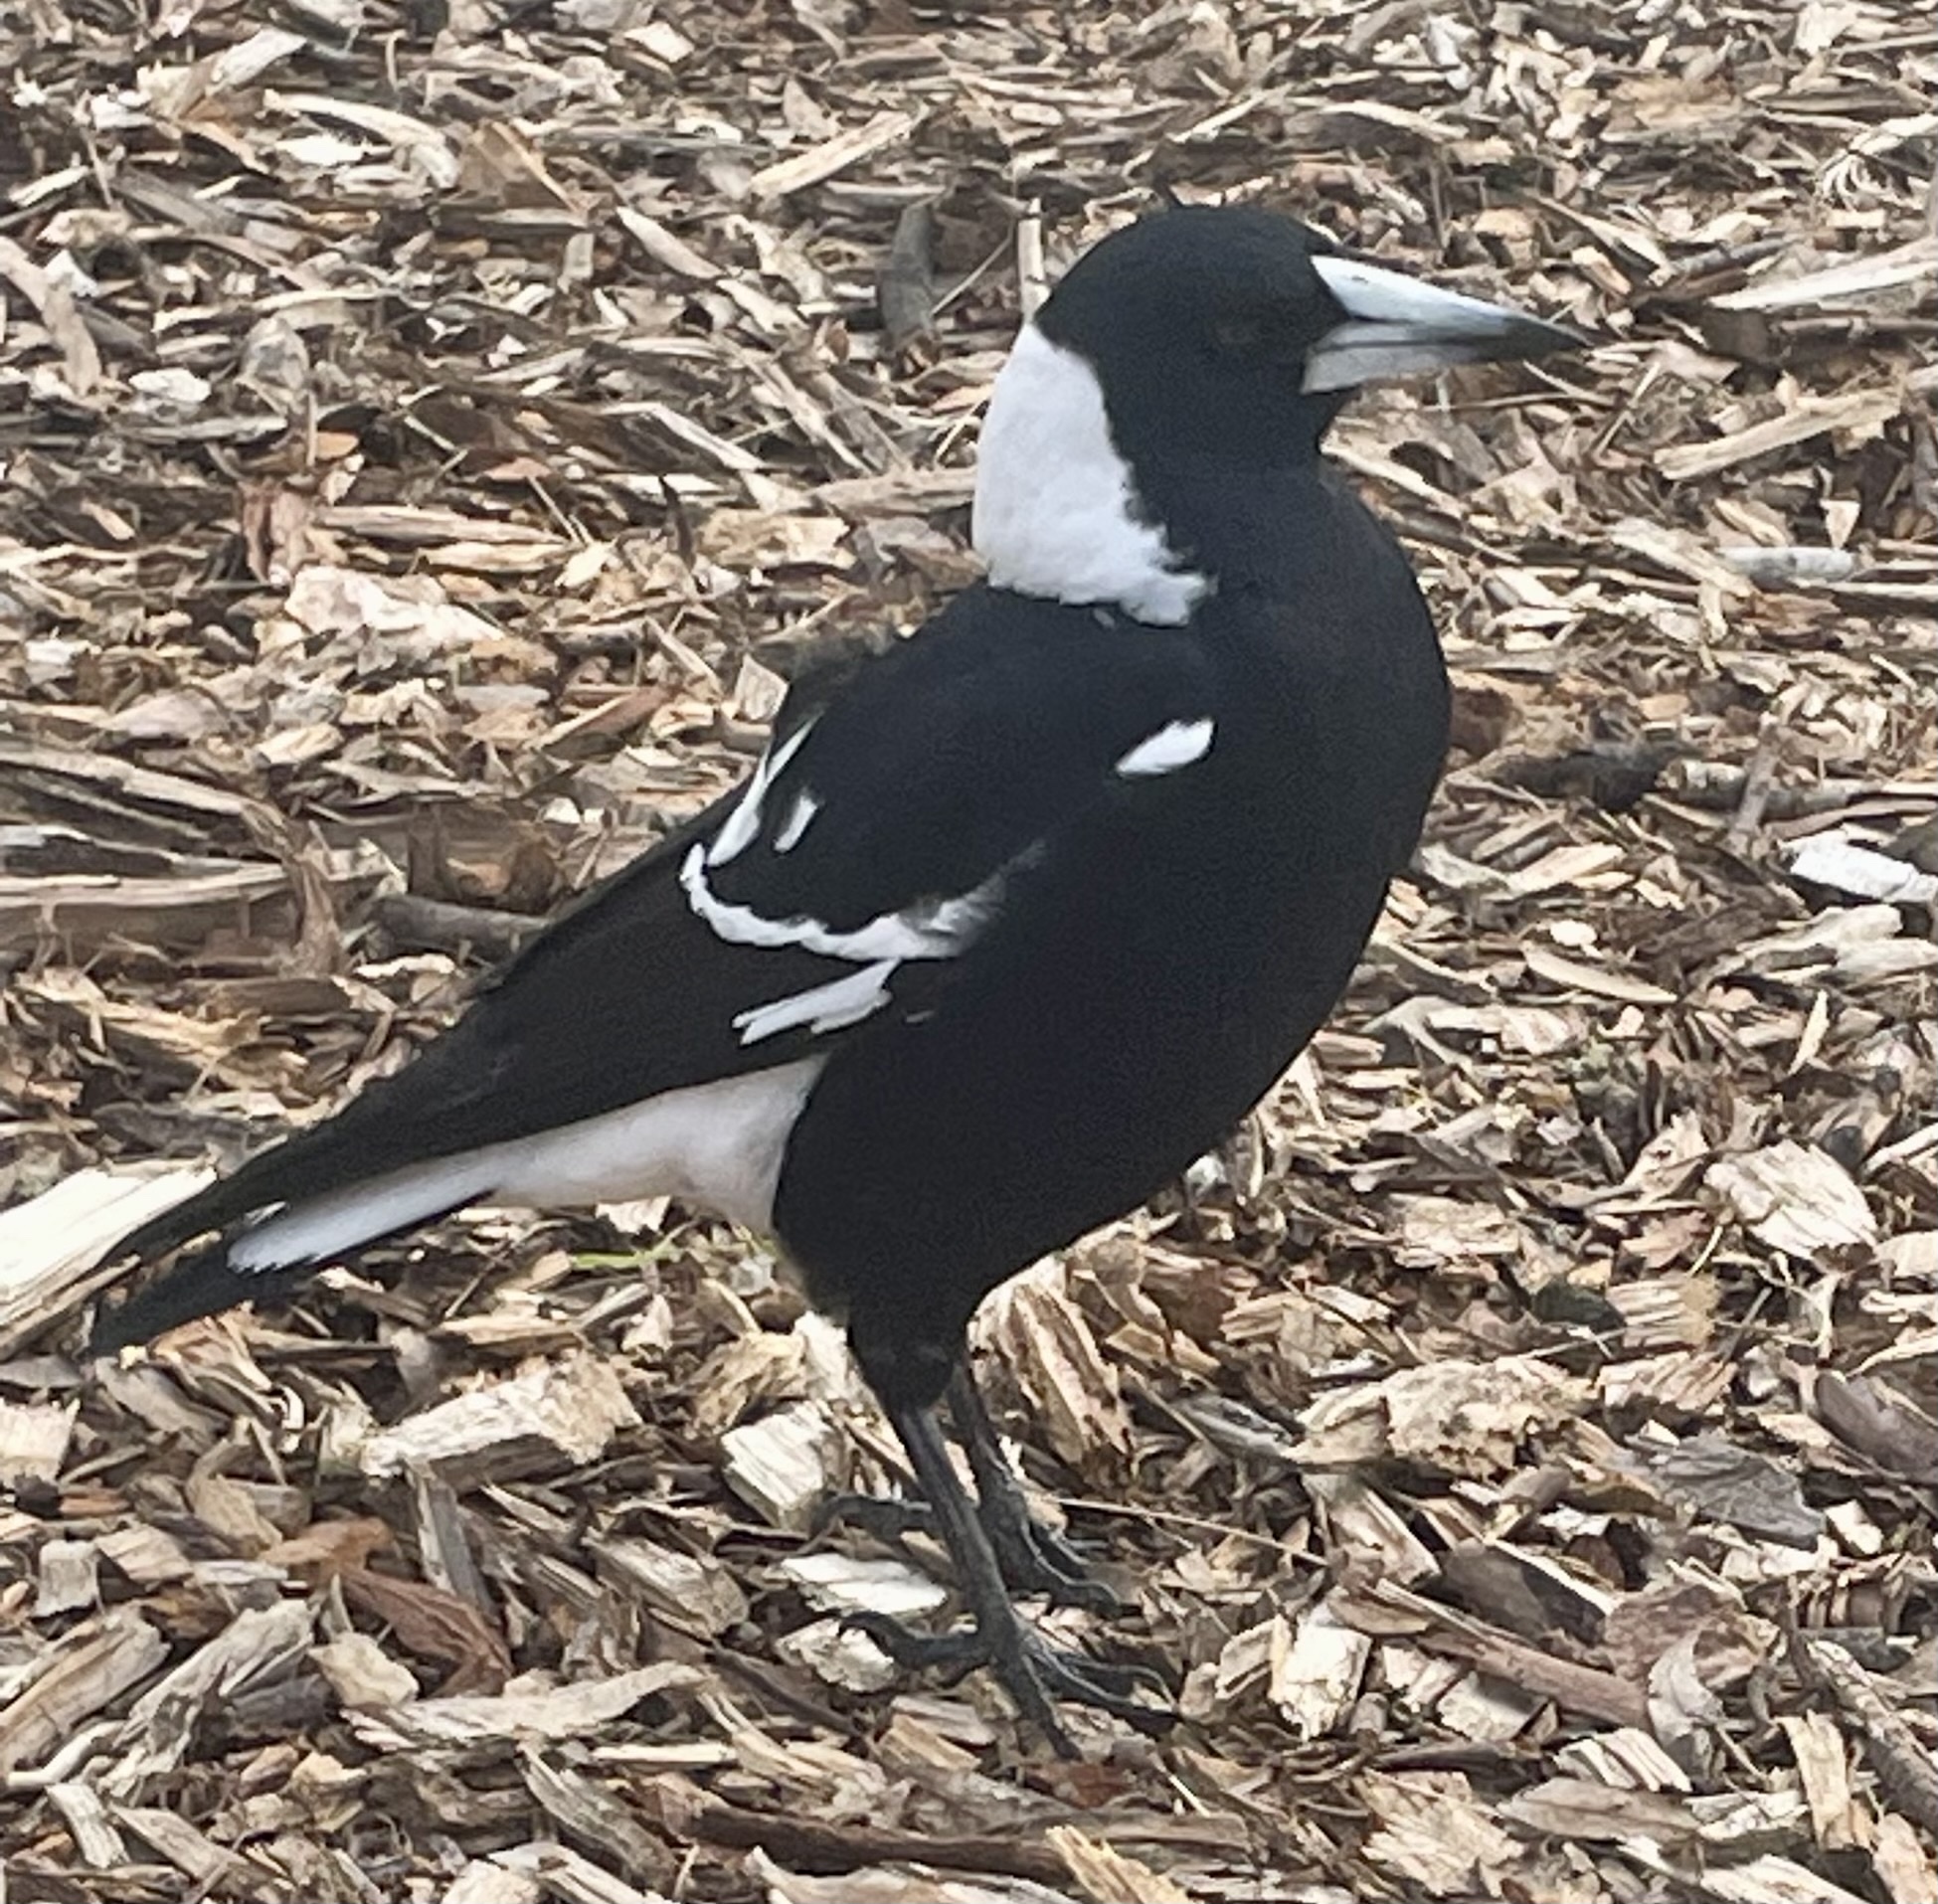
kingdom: Animalia
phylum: Chordata
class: Aves
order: Passeriformes
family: Cracticidae
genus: Gymnorhina
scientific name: Gymnorhina tibicen
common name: Australian magpie
